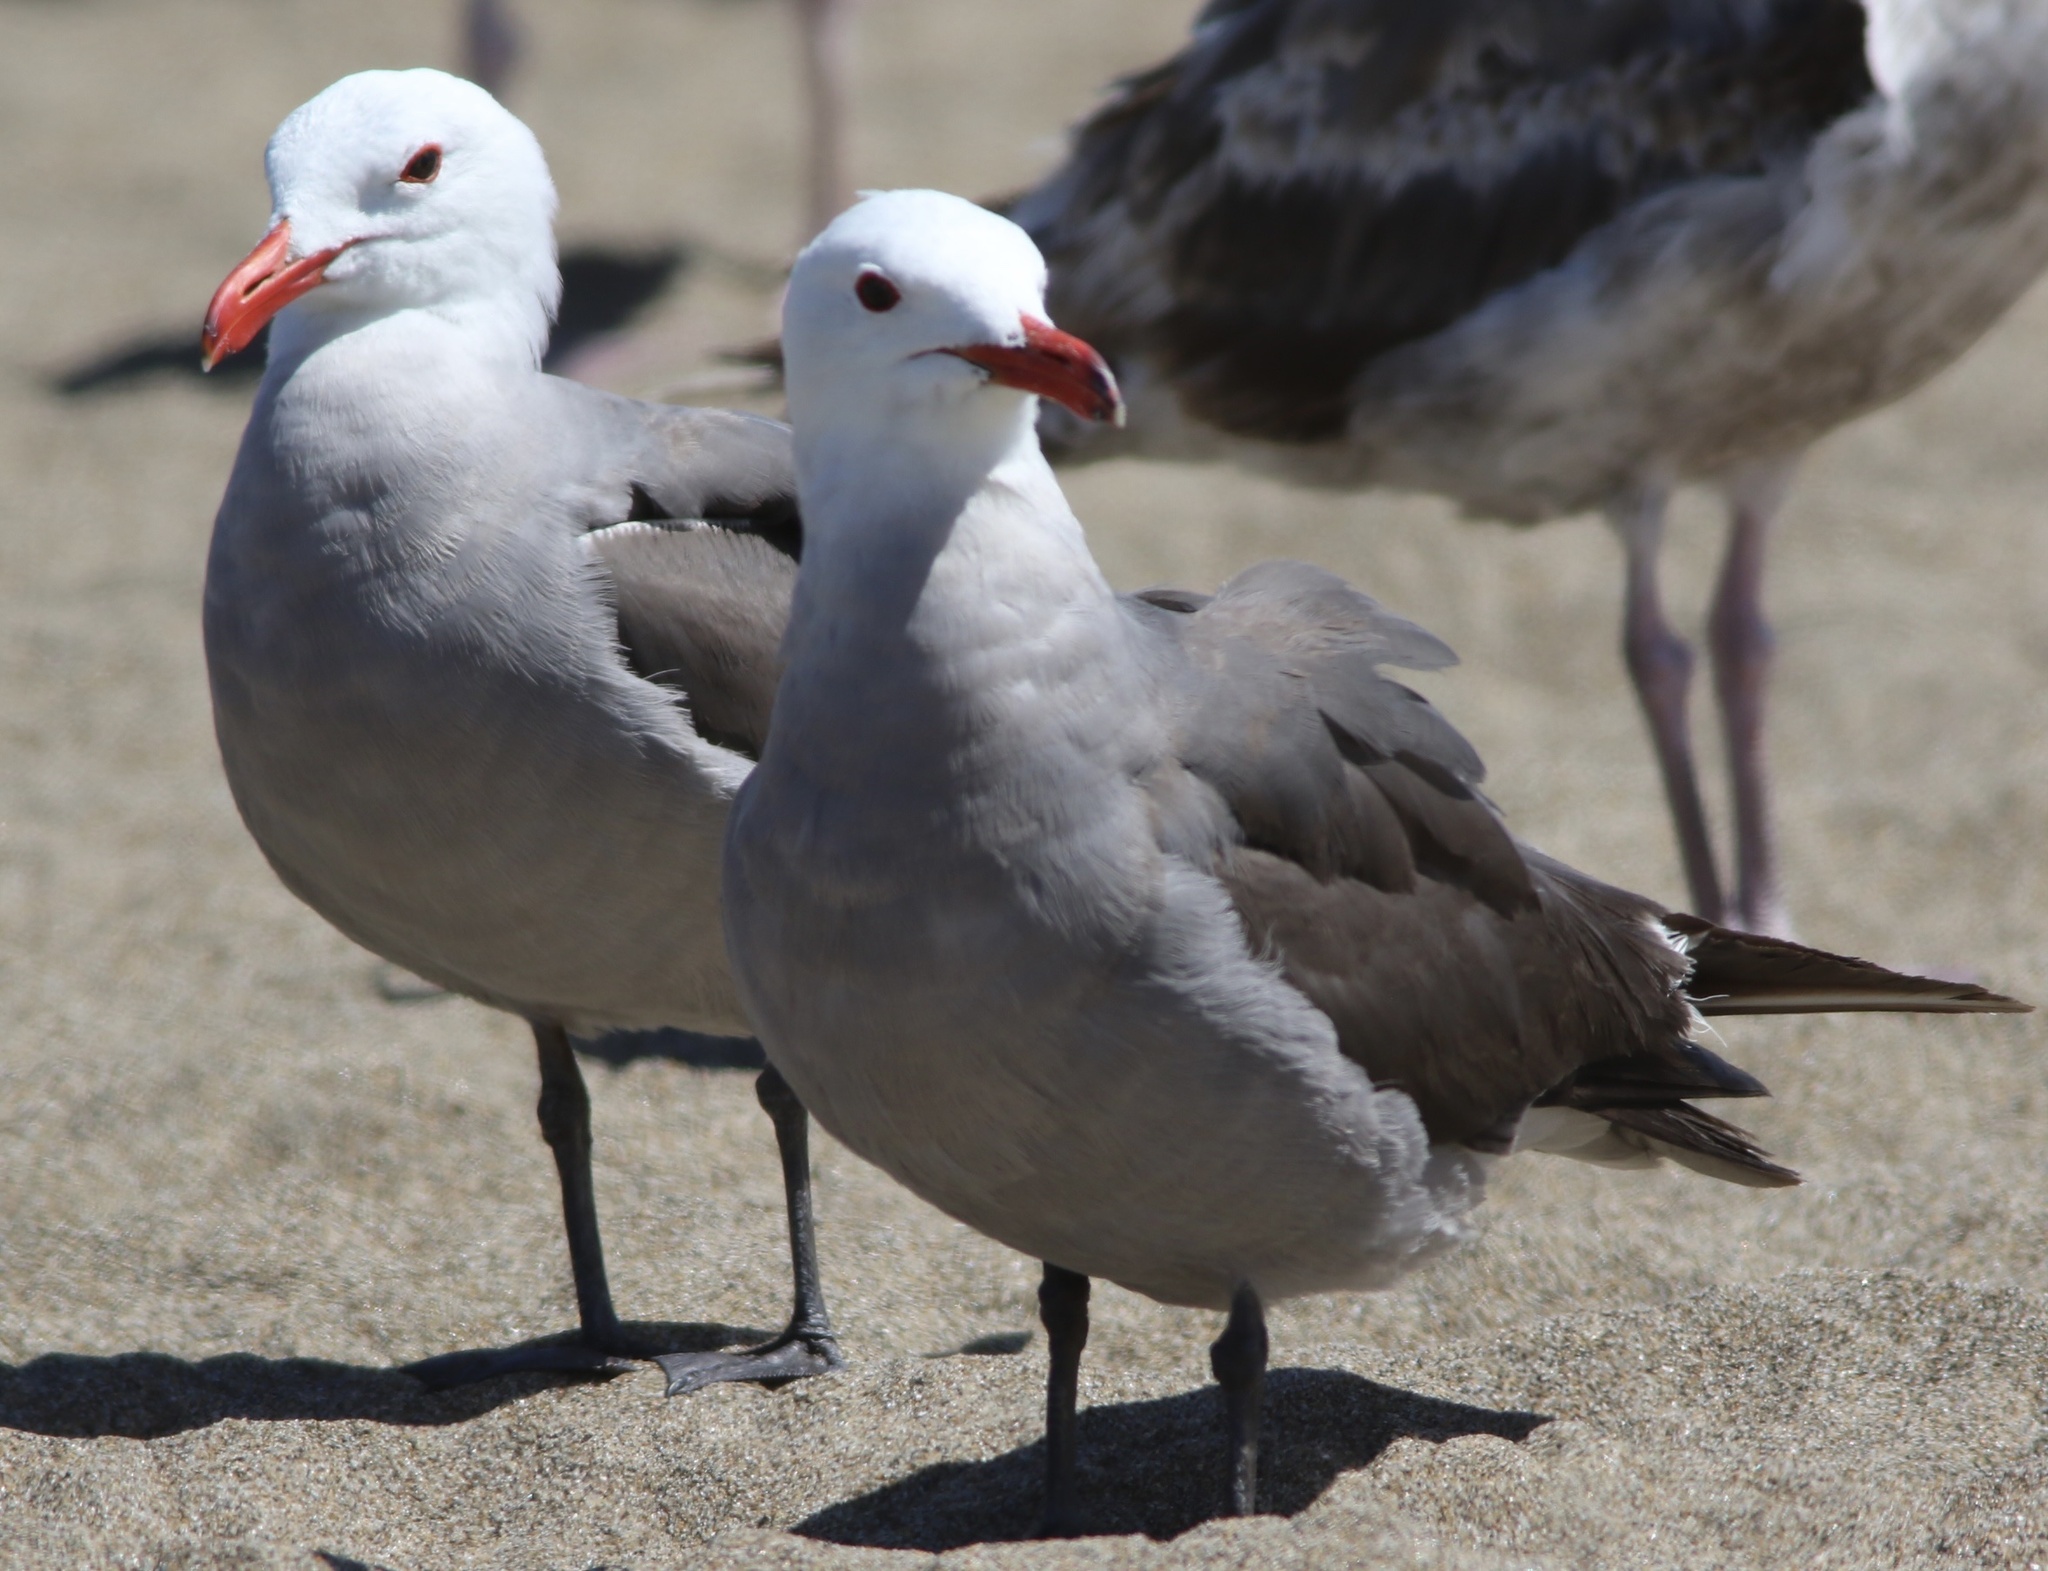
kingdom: Animalia
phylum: Chordata
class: Aves
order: Charadriiformes
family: Laridae
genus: Larus
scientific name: Larus heermanni
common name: Heermann's gull
